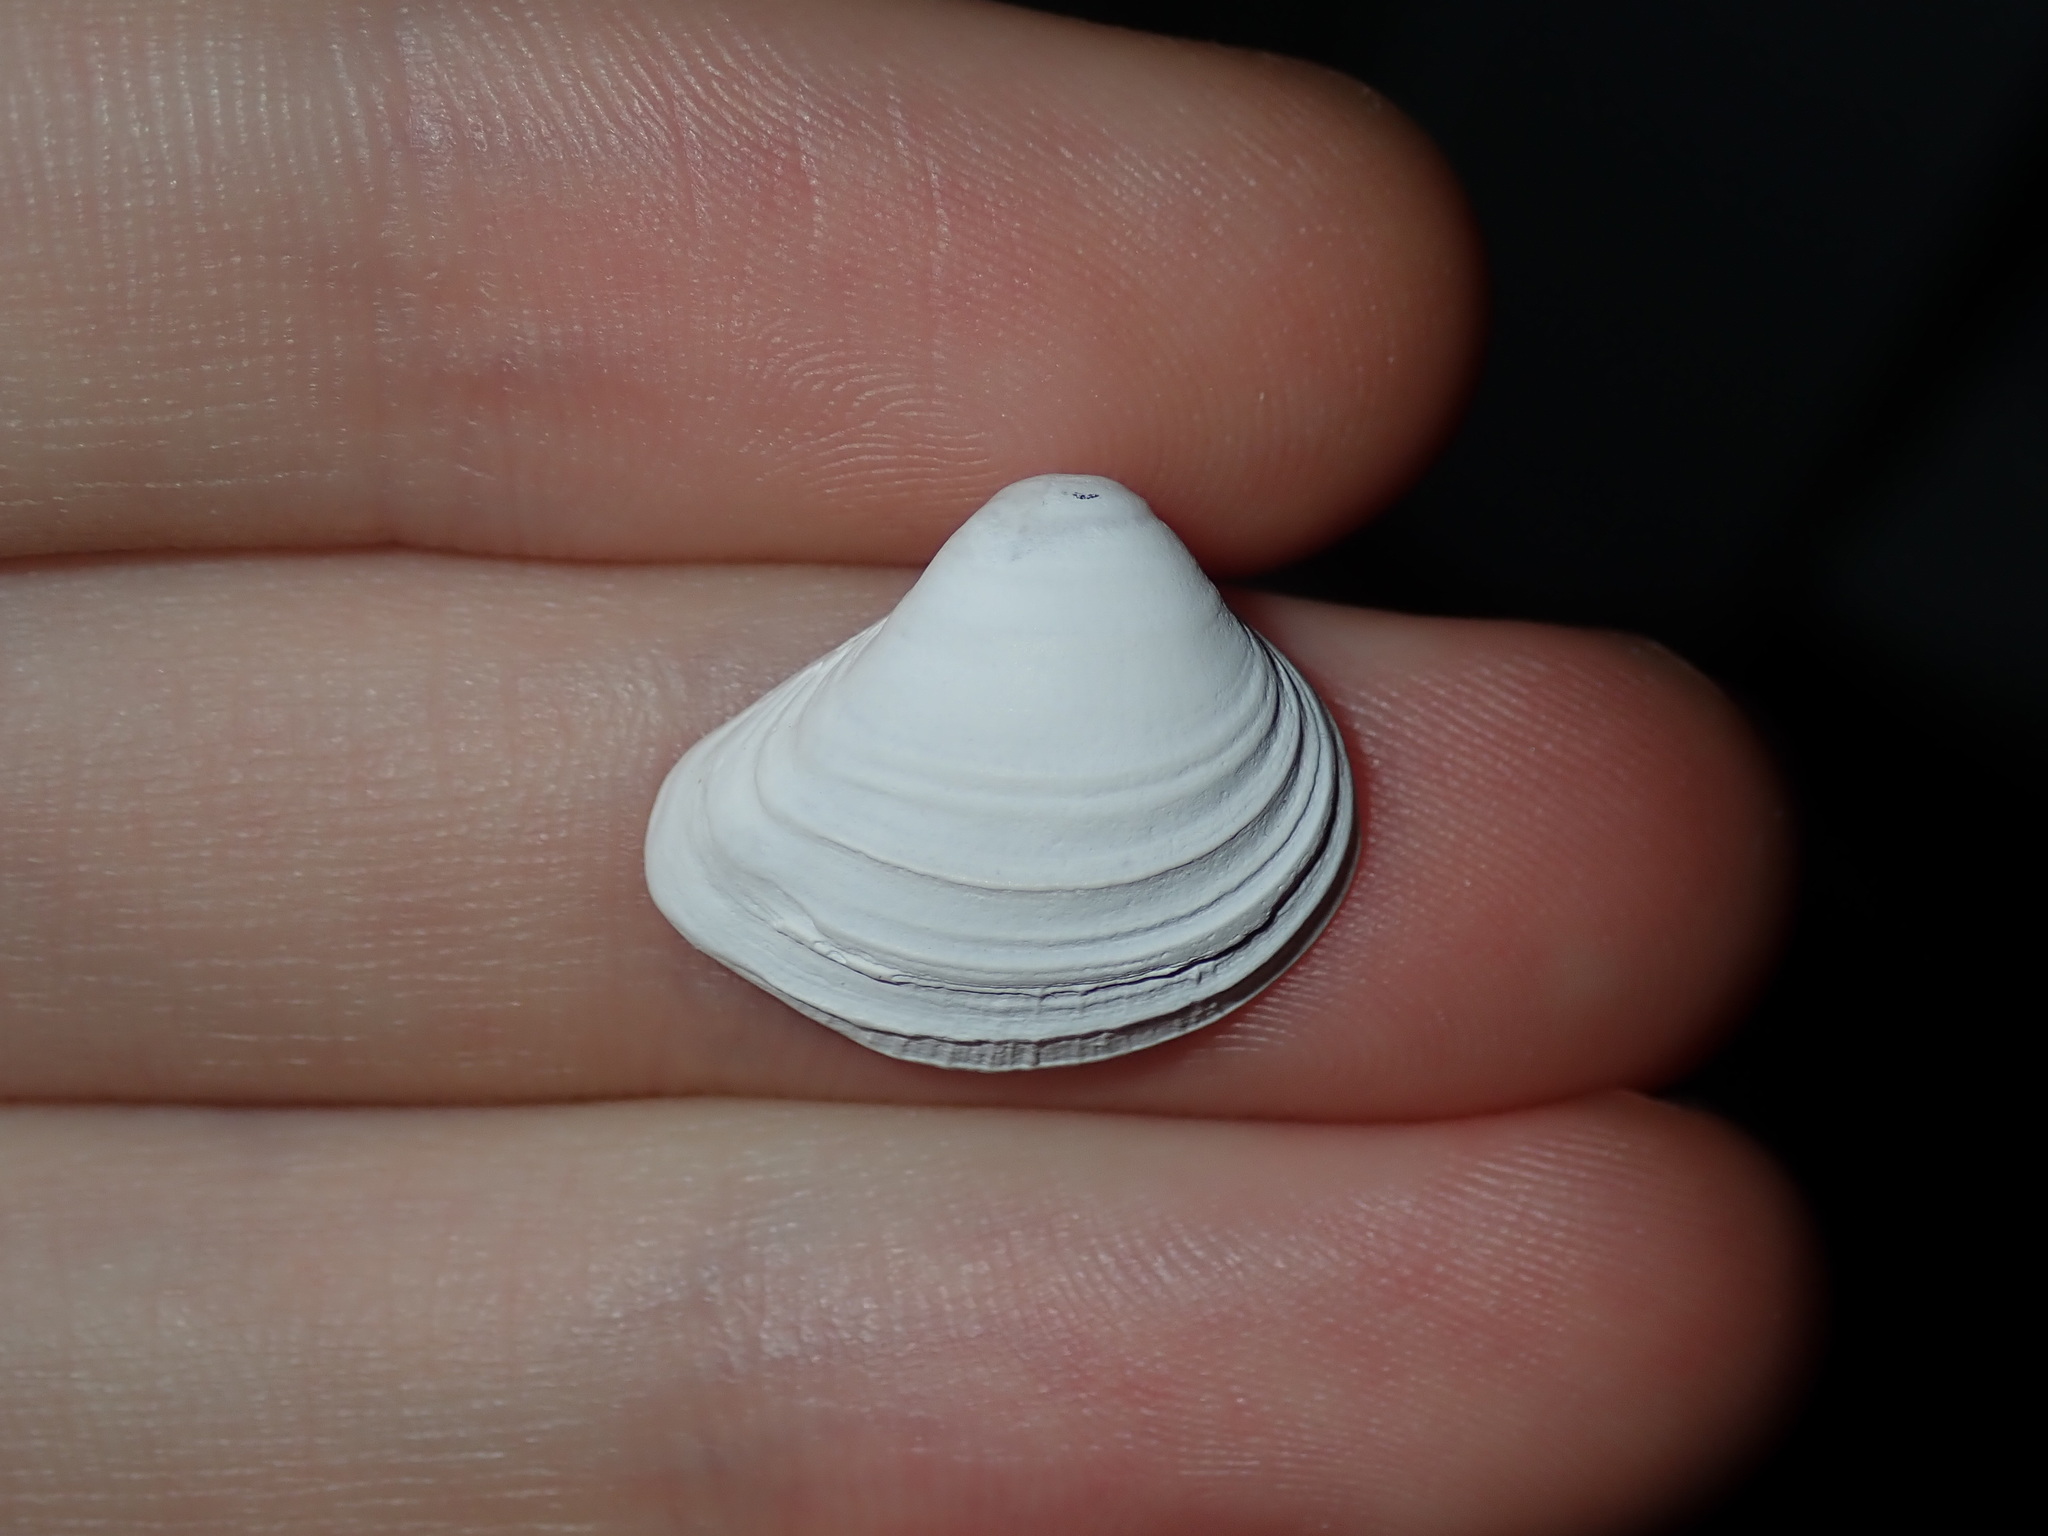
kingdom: Animalia
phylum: Mollusca
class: Bivalvia
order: Venerida
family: Mactridae
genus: Spisula
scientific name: Spisula trigonella
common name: Trigonal mactra
